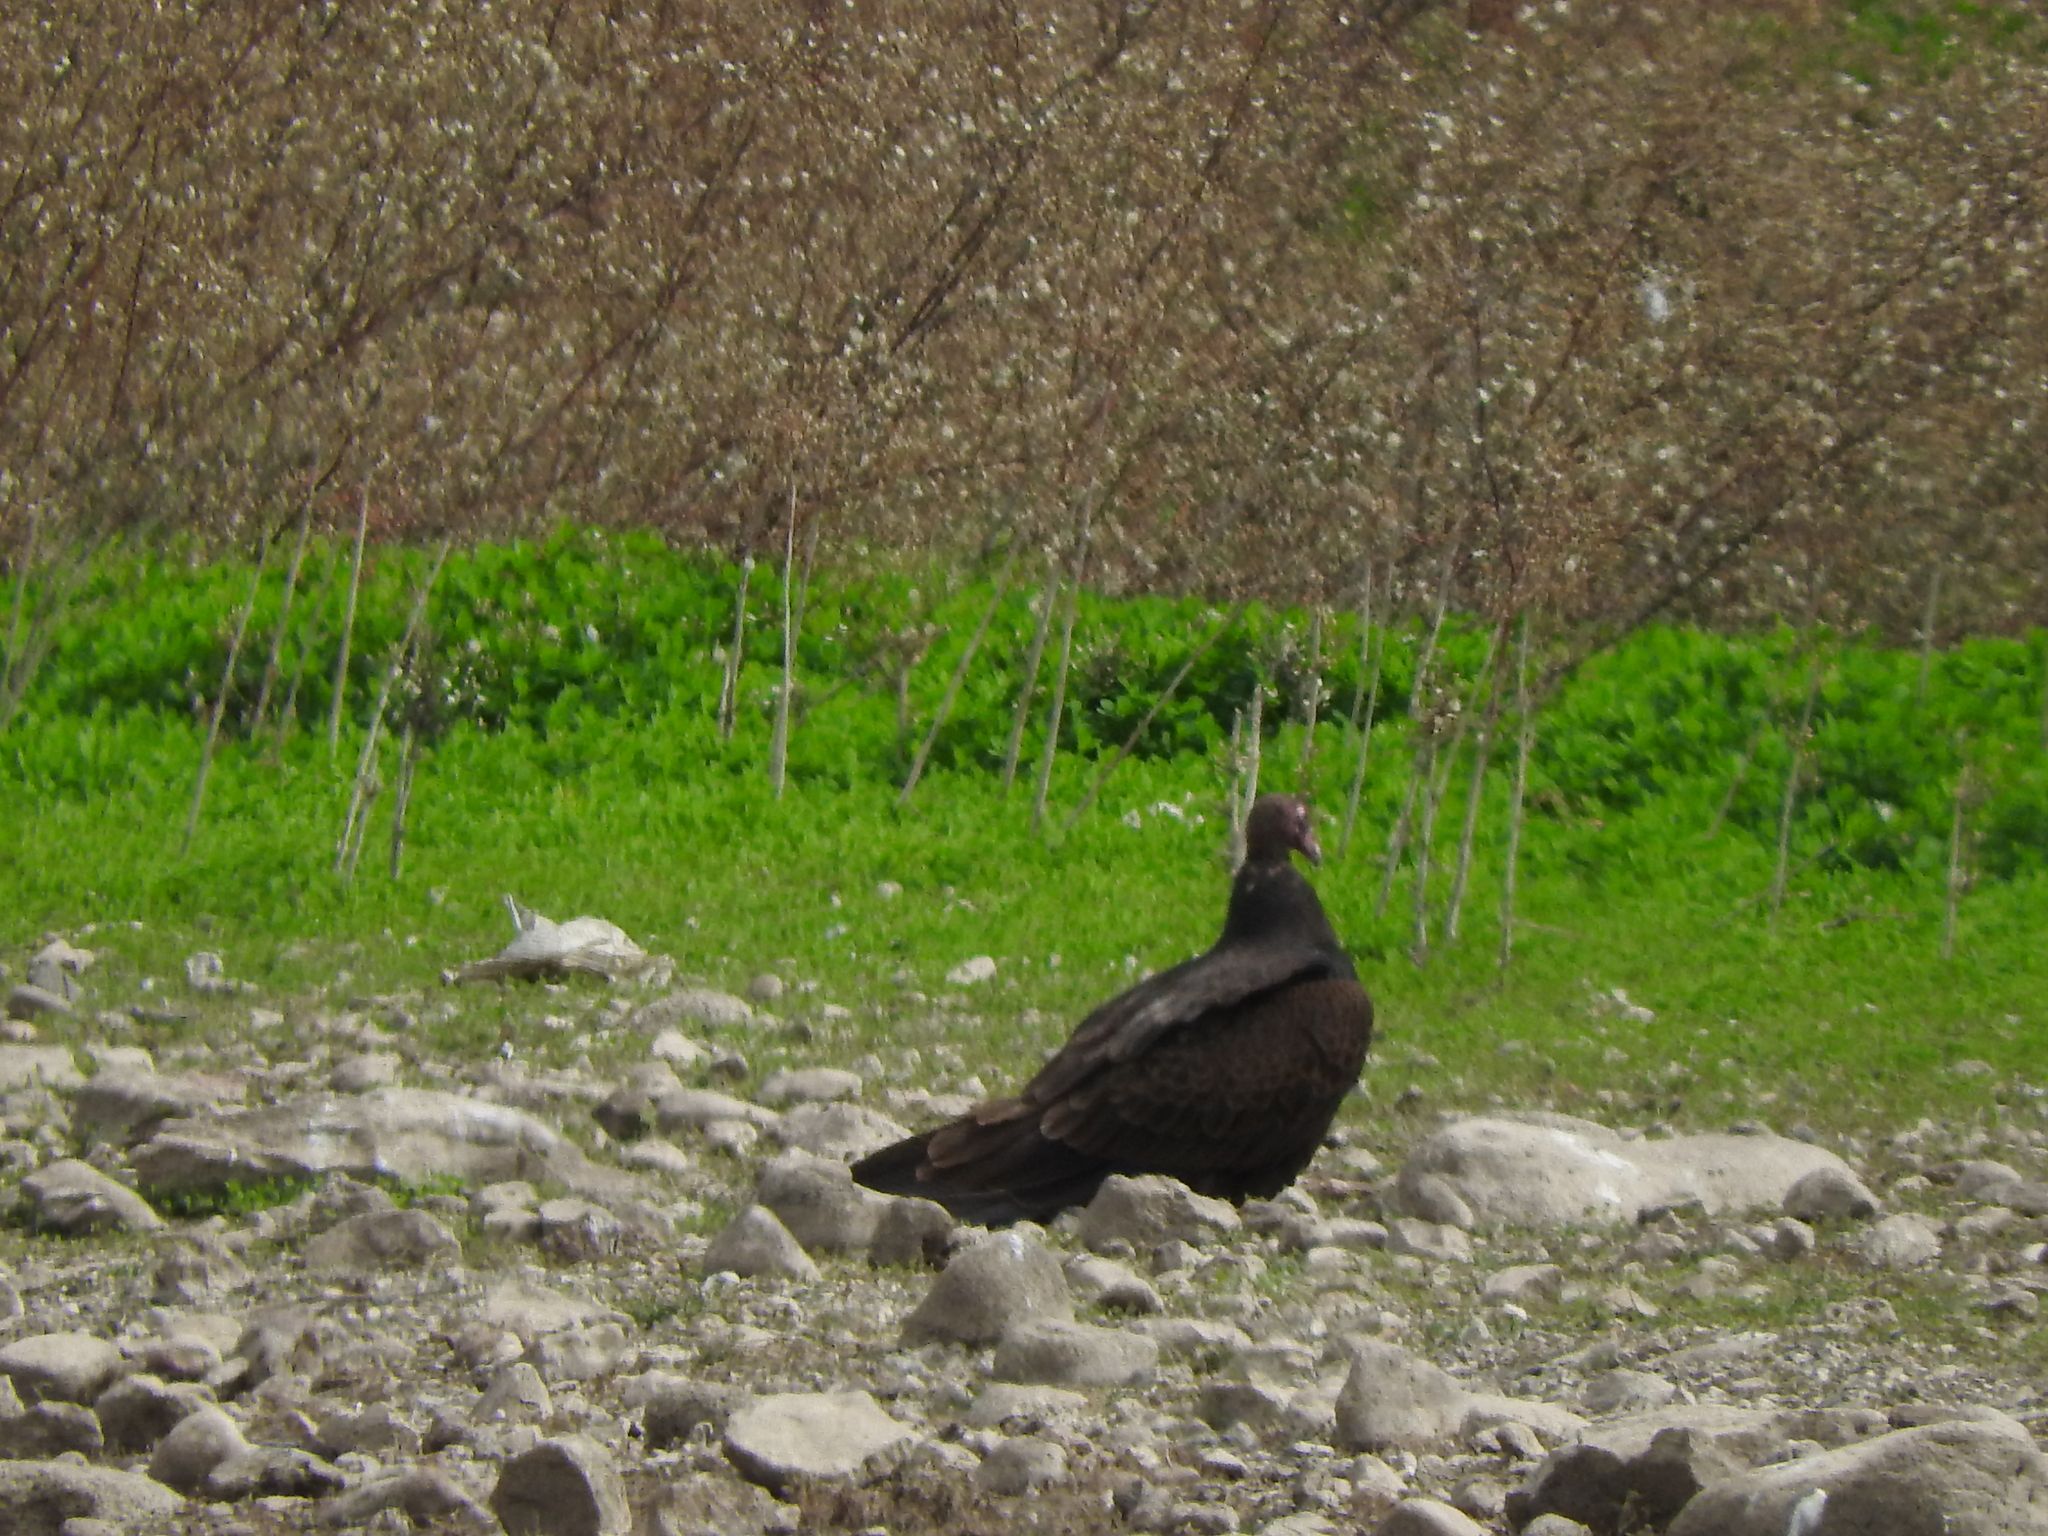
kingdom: Animalia
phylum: Chordata
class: Aves
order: Accipitriformes
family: Cathartidae
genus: Cathartes
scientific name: Cathartes aura
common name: Turkey vulture
